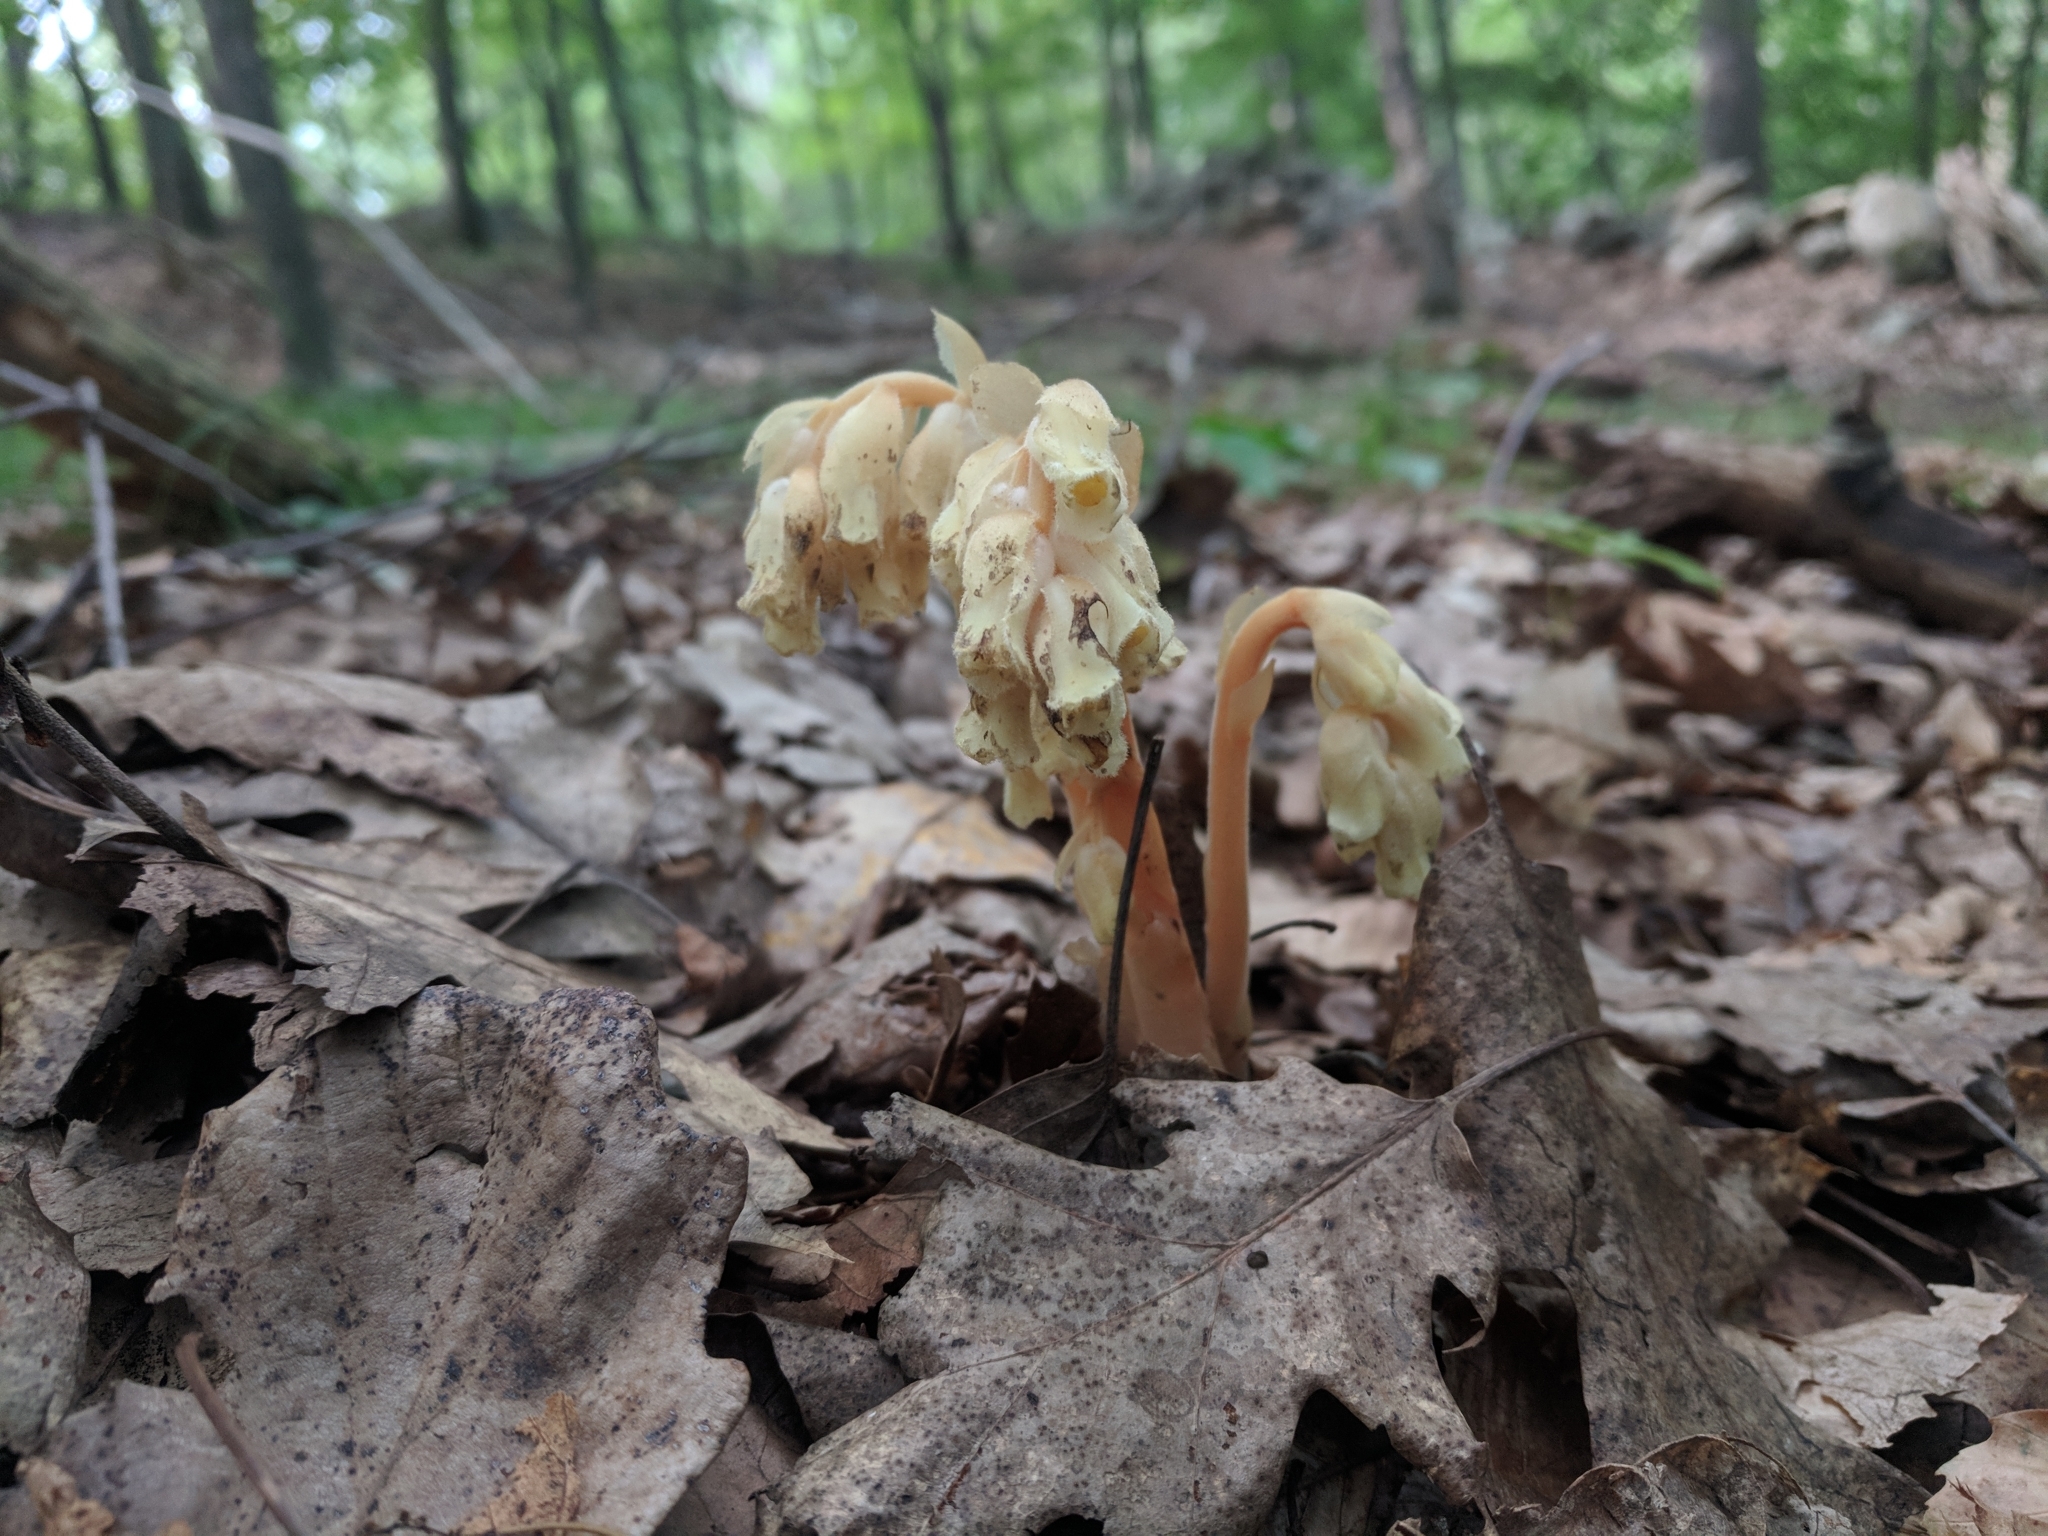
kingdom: Plantae
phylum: Tracheophyta
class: Magnoliopsida
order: Ericales
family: Ericaceae
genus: Hypopitys
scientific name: Hypopitys monotropa
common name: Yellow bird's-nest
